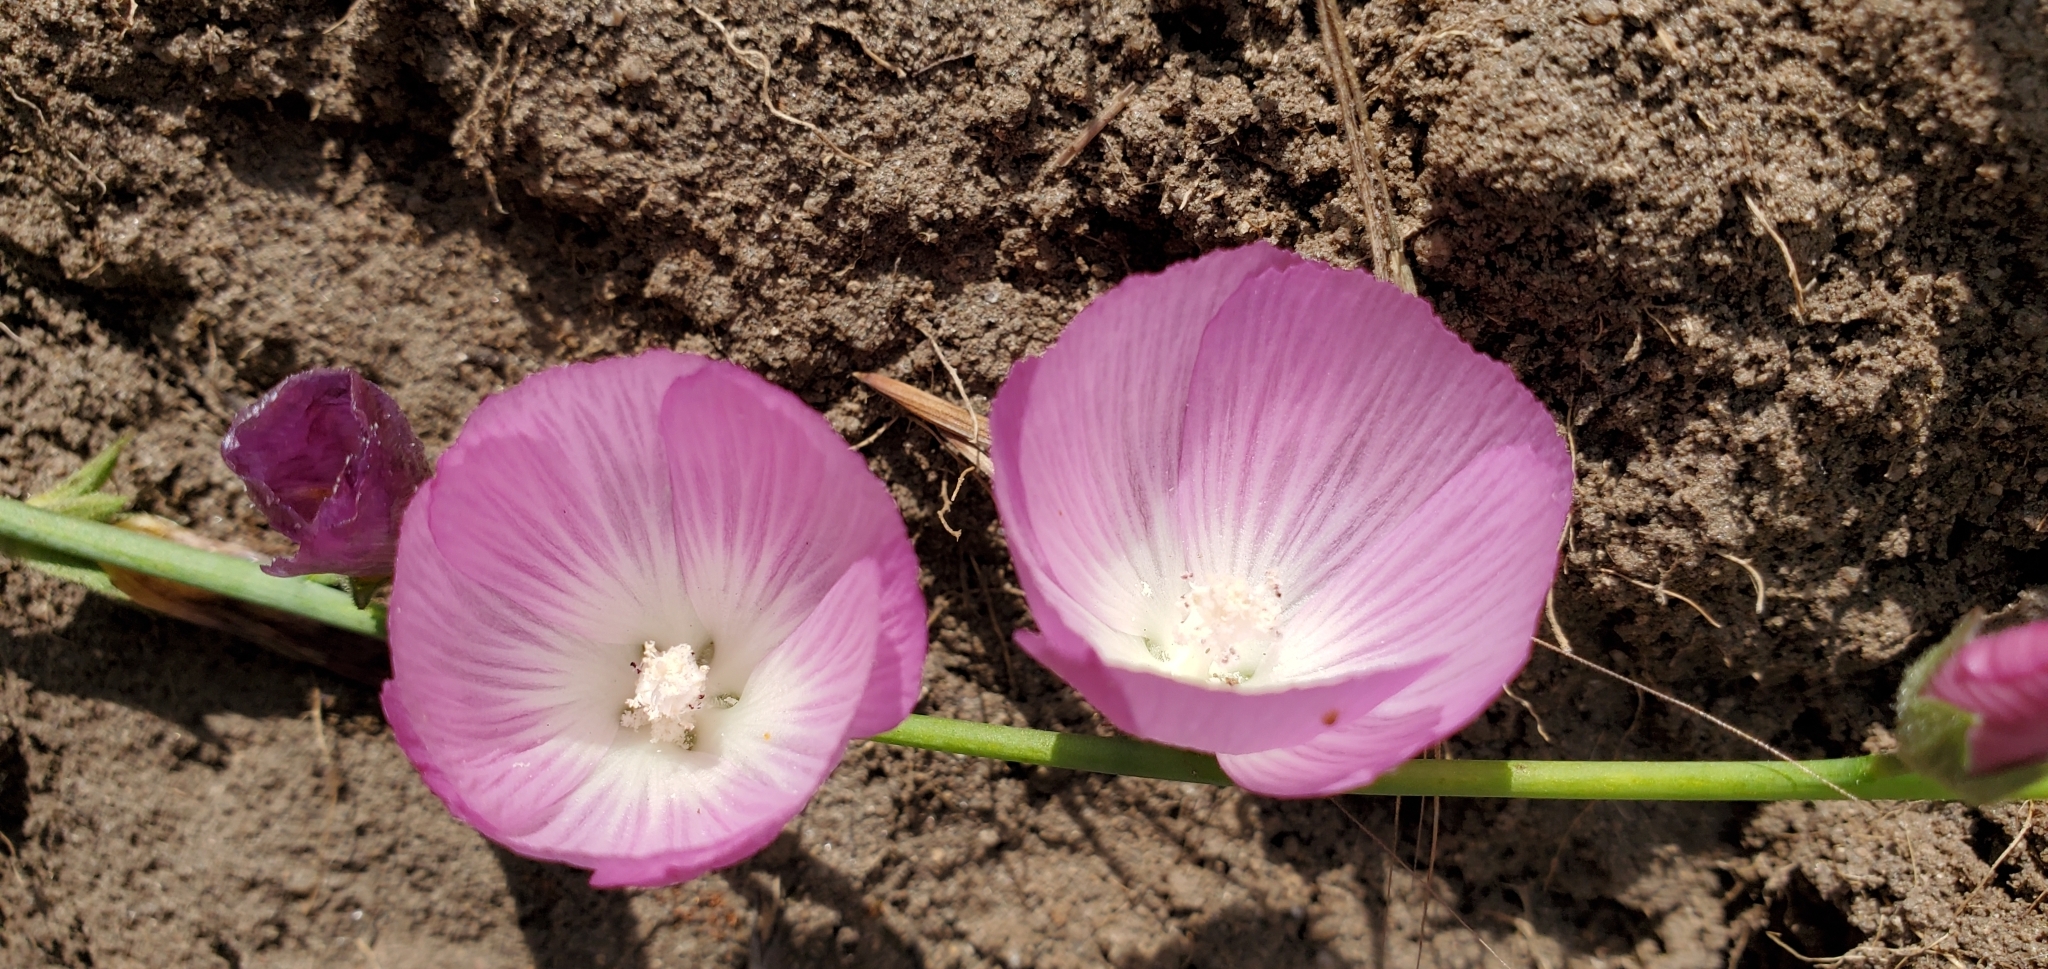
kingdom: Plantae
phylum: Tracheophyta
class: Magnoliopsida
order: Malvales
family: Malvaceae
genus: Sidalcea
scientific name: Sidalcea sparsifolia
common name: Southern checkerbloom
